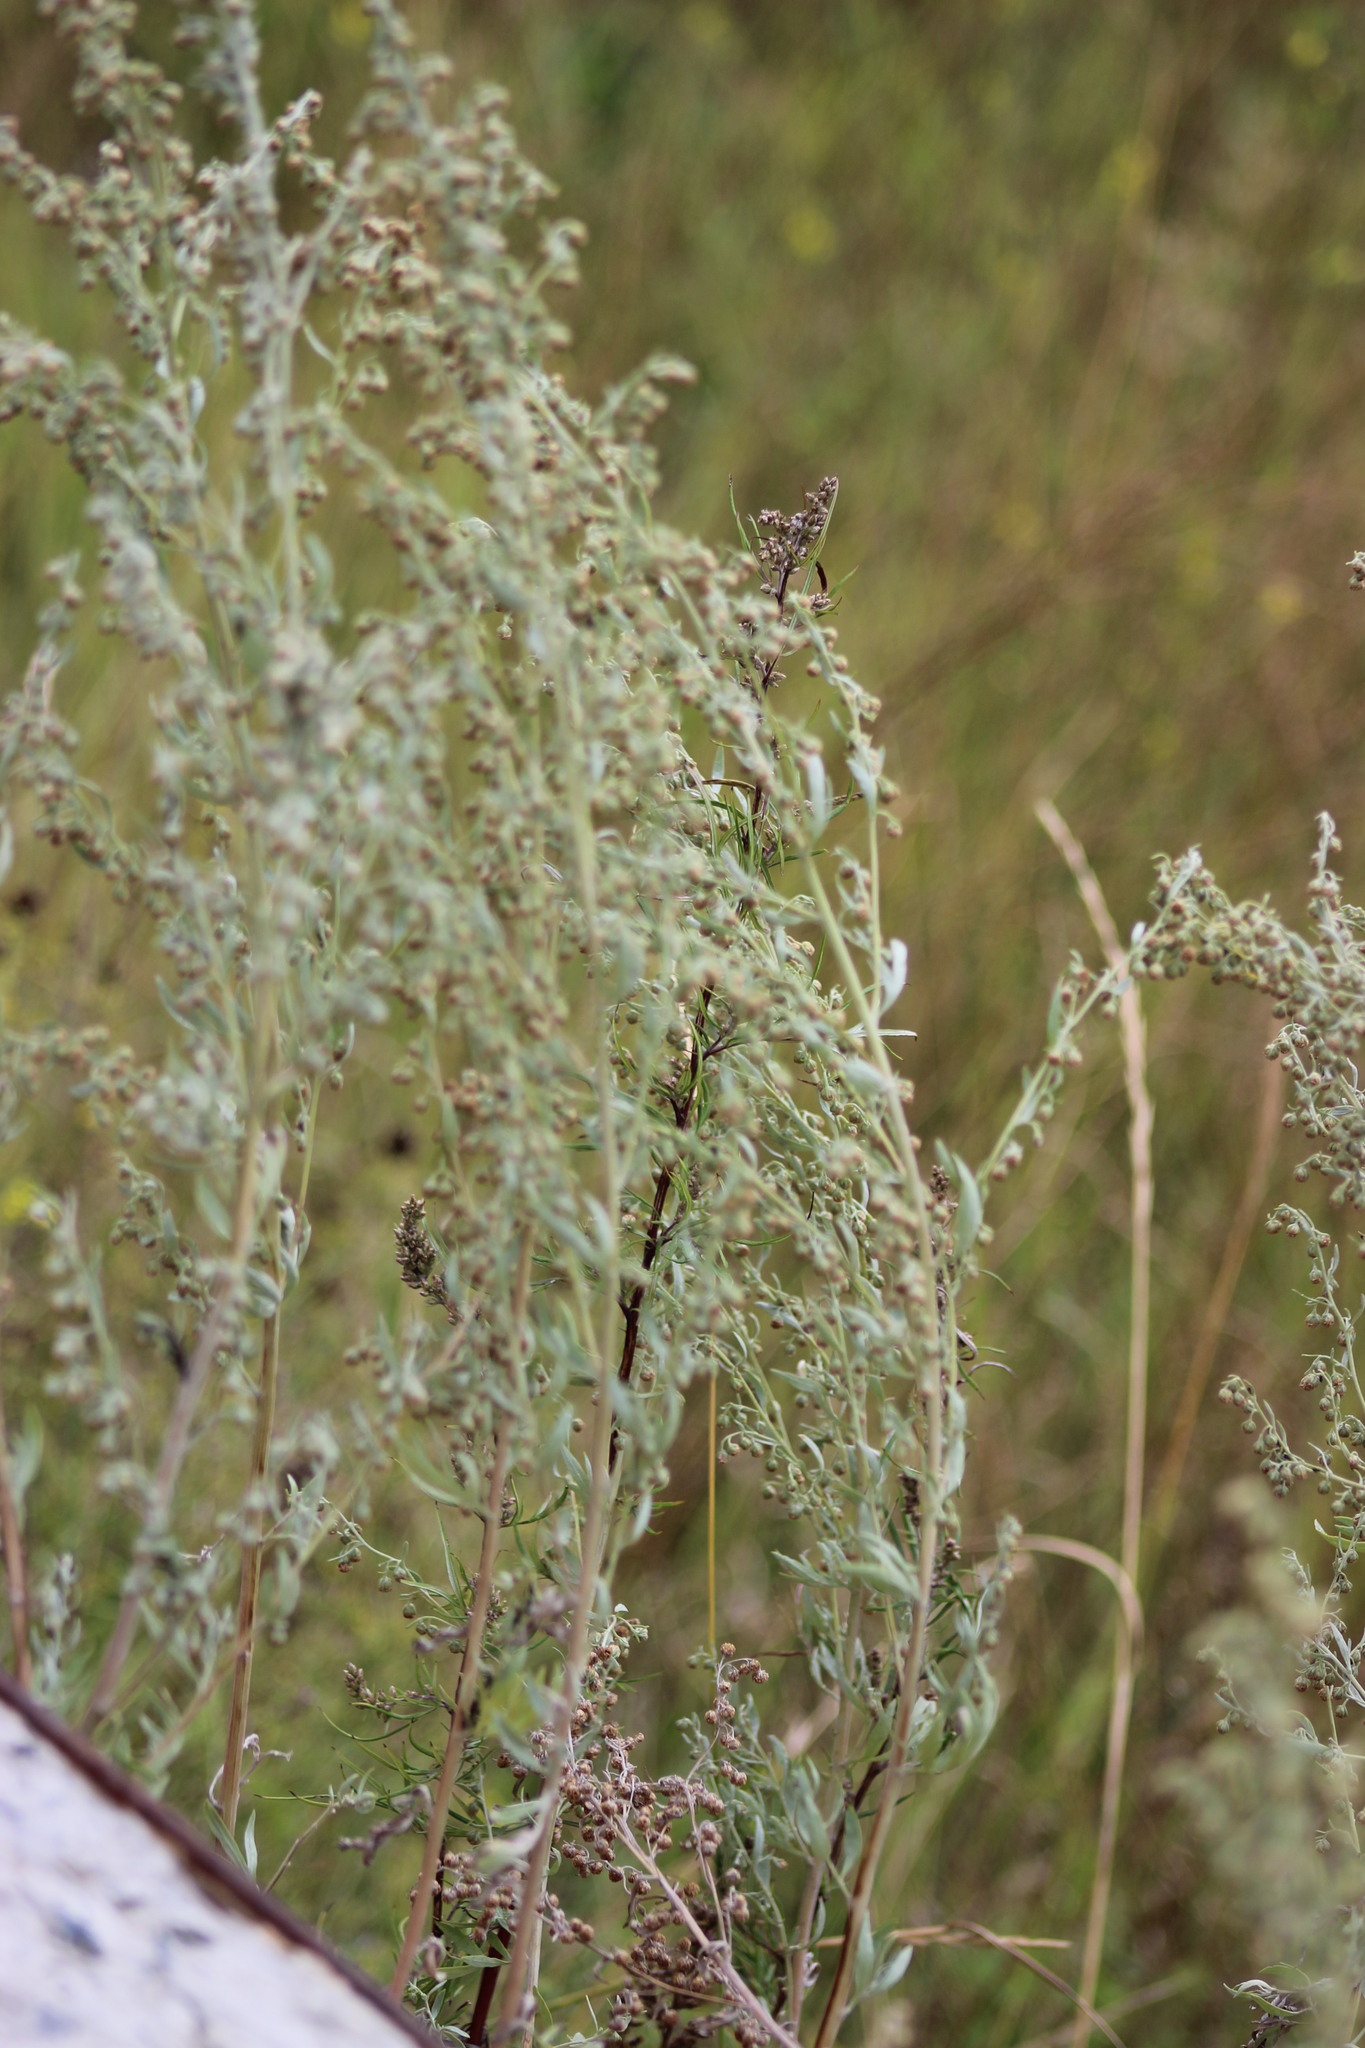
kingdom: Plantae
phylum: Tracheophyta
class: Magnoliopsida
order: Asterales
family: Asteraceae
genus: Artemisia
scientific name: Artemisia absinthium
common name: Wormwood
